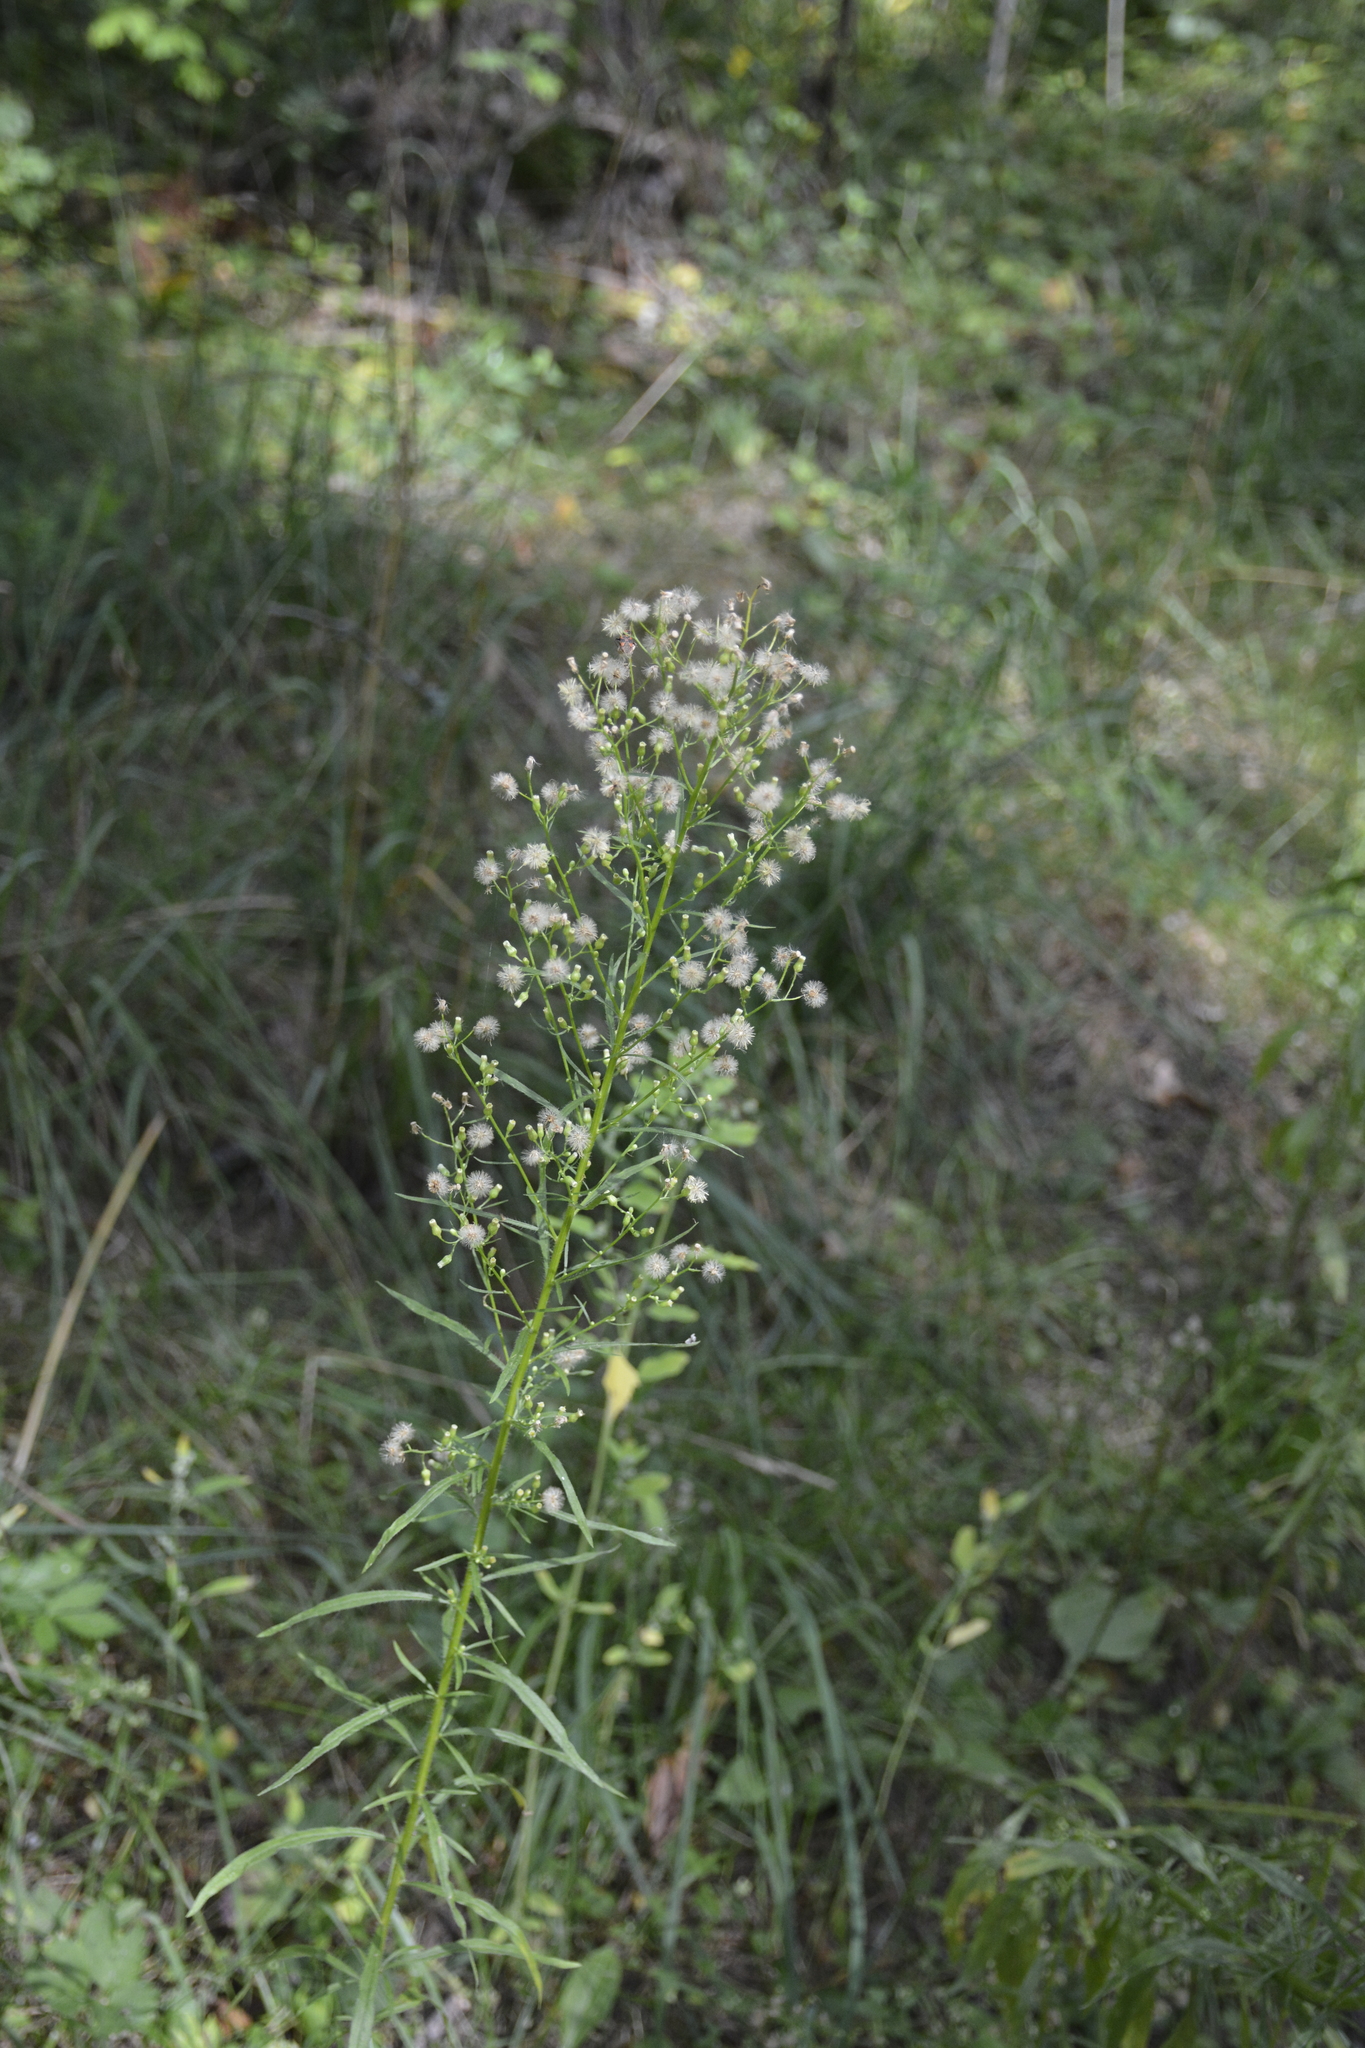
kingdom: Plantae
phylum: Tracheophyta
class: Magnoliopsida
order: Asterales
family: Asteraceae
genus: Erigeron
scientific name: Erigeron canadensis
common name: Canadian fleabane
